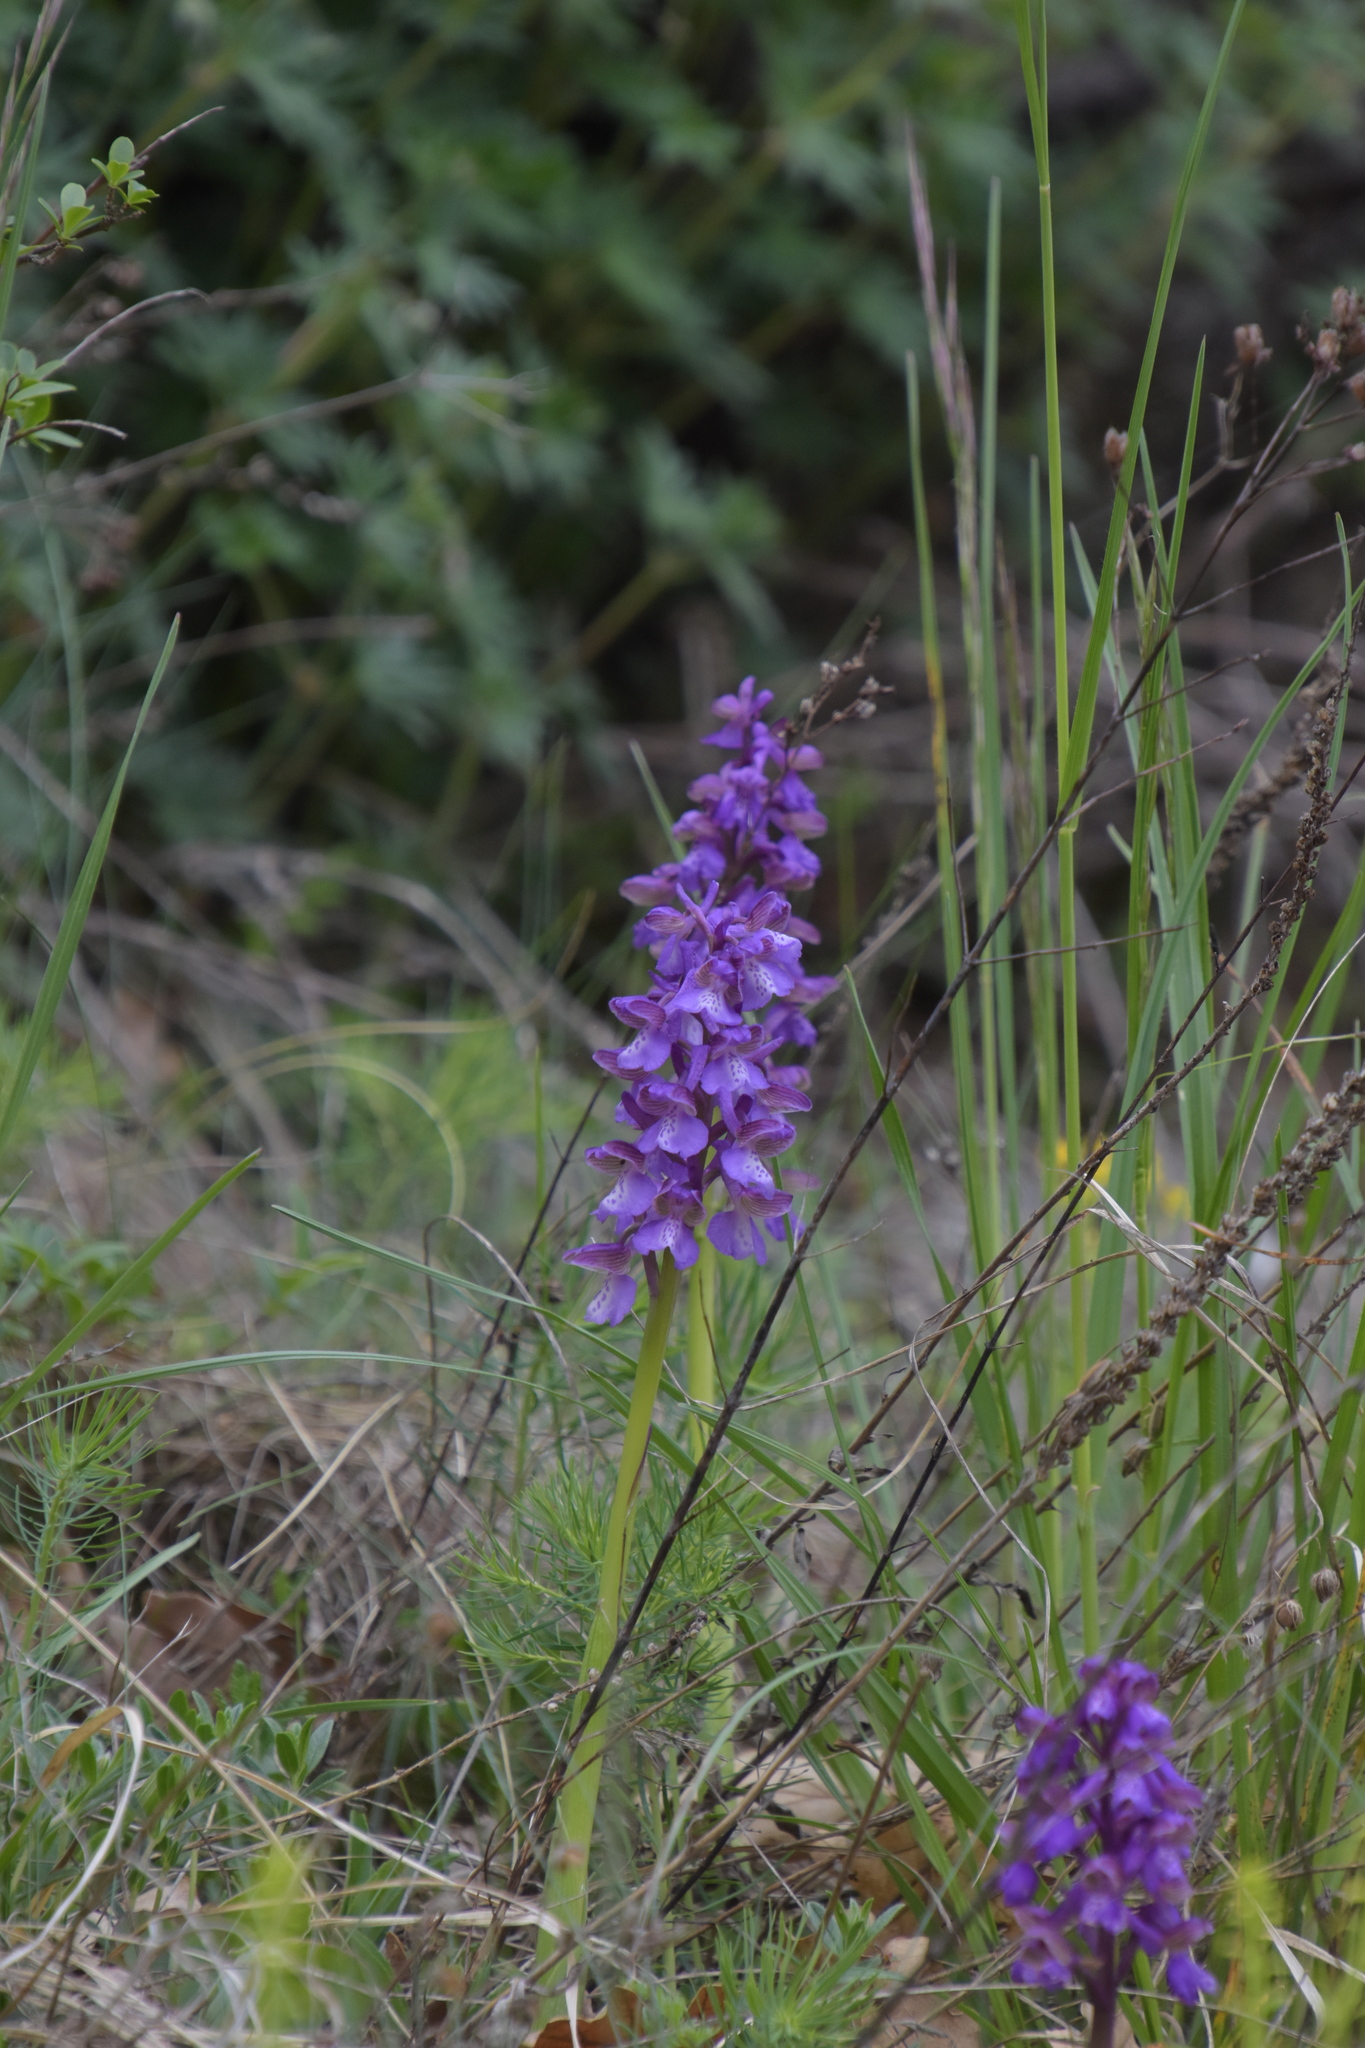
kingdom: Plantae
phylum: Tracheophyta
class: Liliopsida
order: Asparagales
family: Orchidaceae
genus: Anacamptis
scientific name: Anacamptis morio
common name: Green-winged orchid
